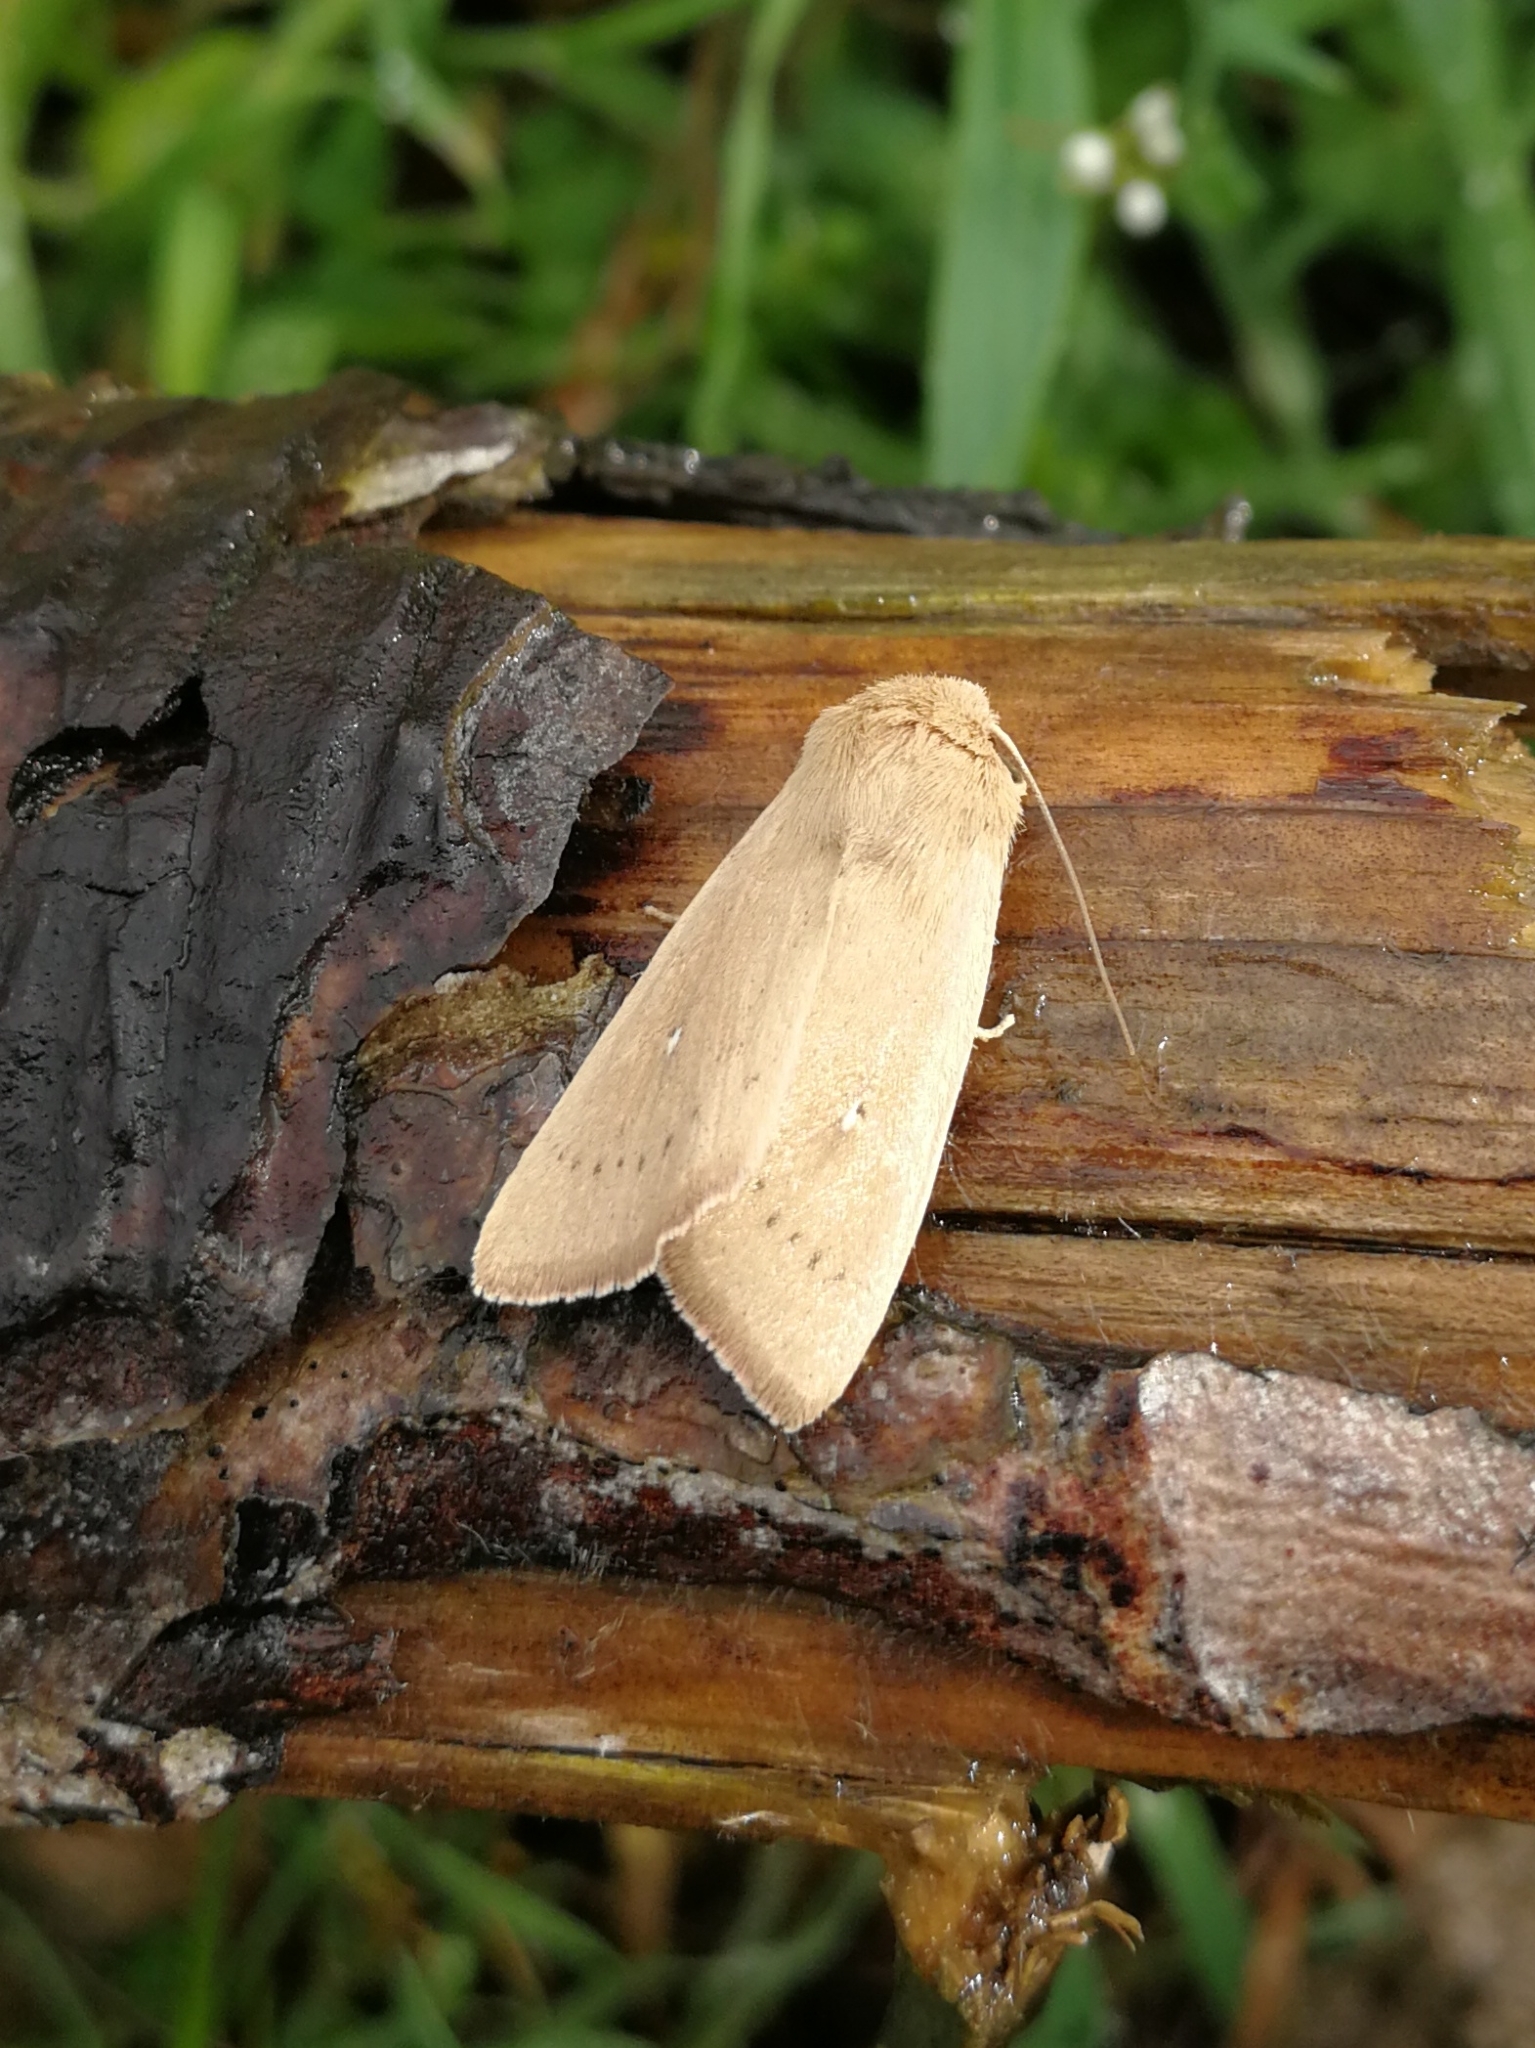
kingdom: Animalia
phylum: Arthropoda
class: Insecta
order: Lepidoptera
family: Noctuidae
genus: Mythimna
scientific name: Mythimna sicula
